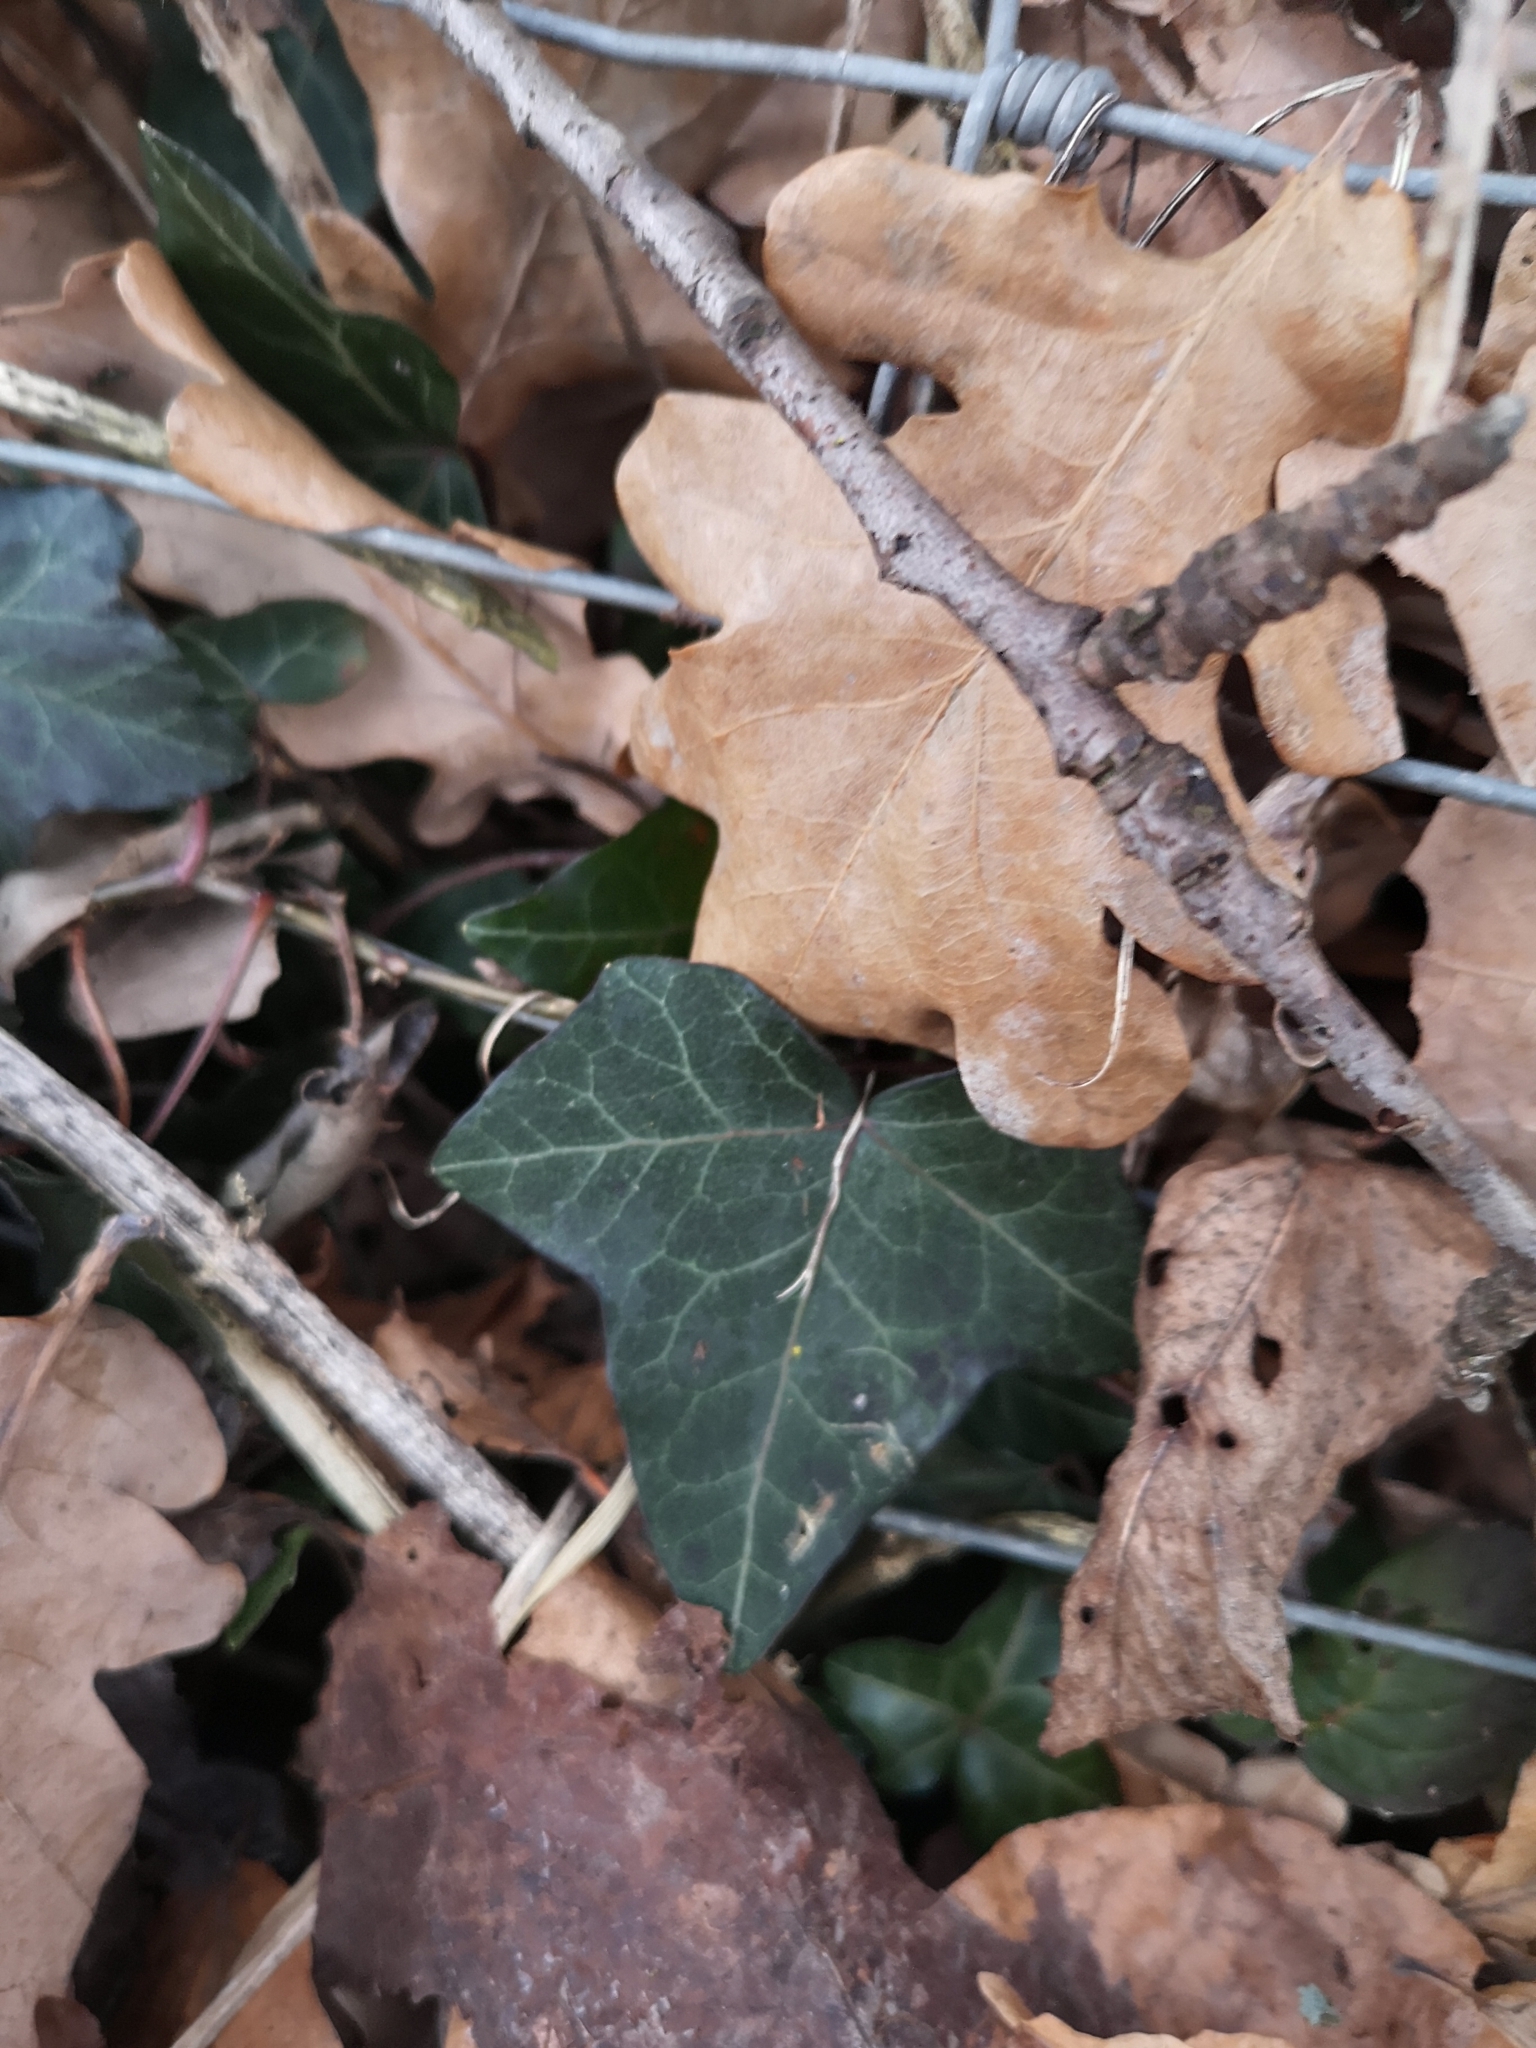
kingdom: Plantae
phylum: Tracheophyta
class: Magnoliopsida
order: Apiales
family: Araliaceae
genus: Hedera
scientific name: Hedera helix
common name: Ivy
